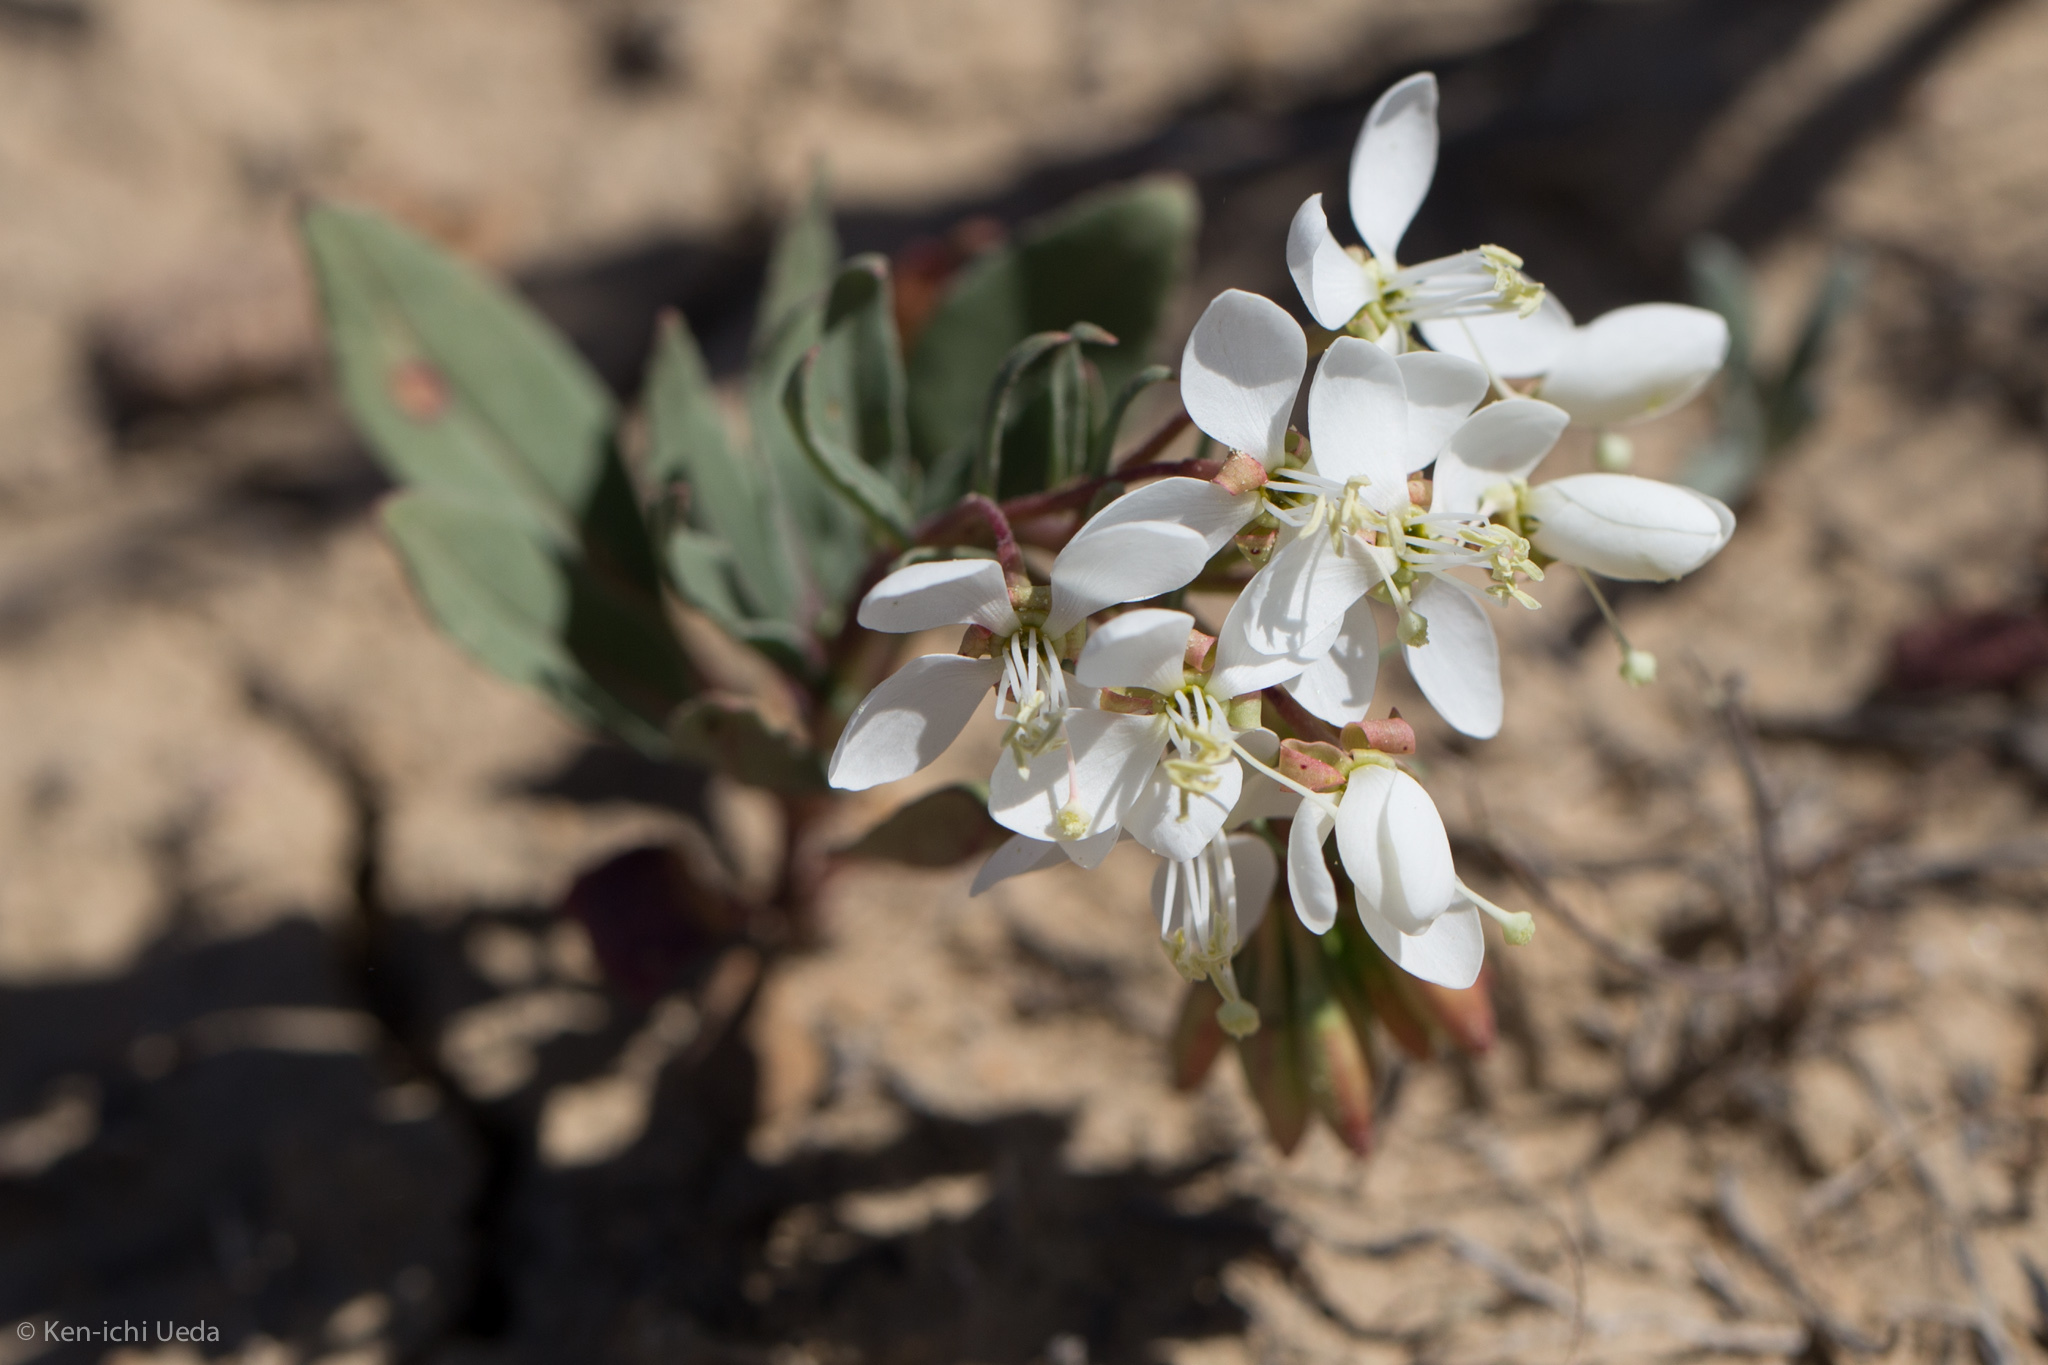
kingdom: Plantae
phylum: Tracheophyta
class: Magnoliopsida
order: Myrtales
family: Onagraceae
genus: Eremothera
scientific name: Eremothera boothii
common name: Booth's evening primrose
